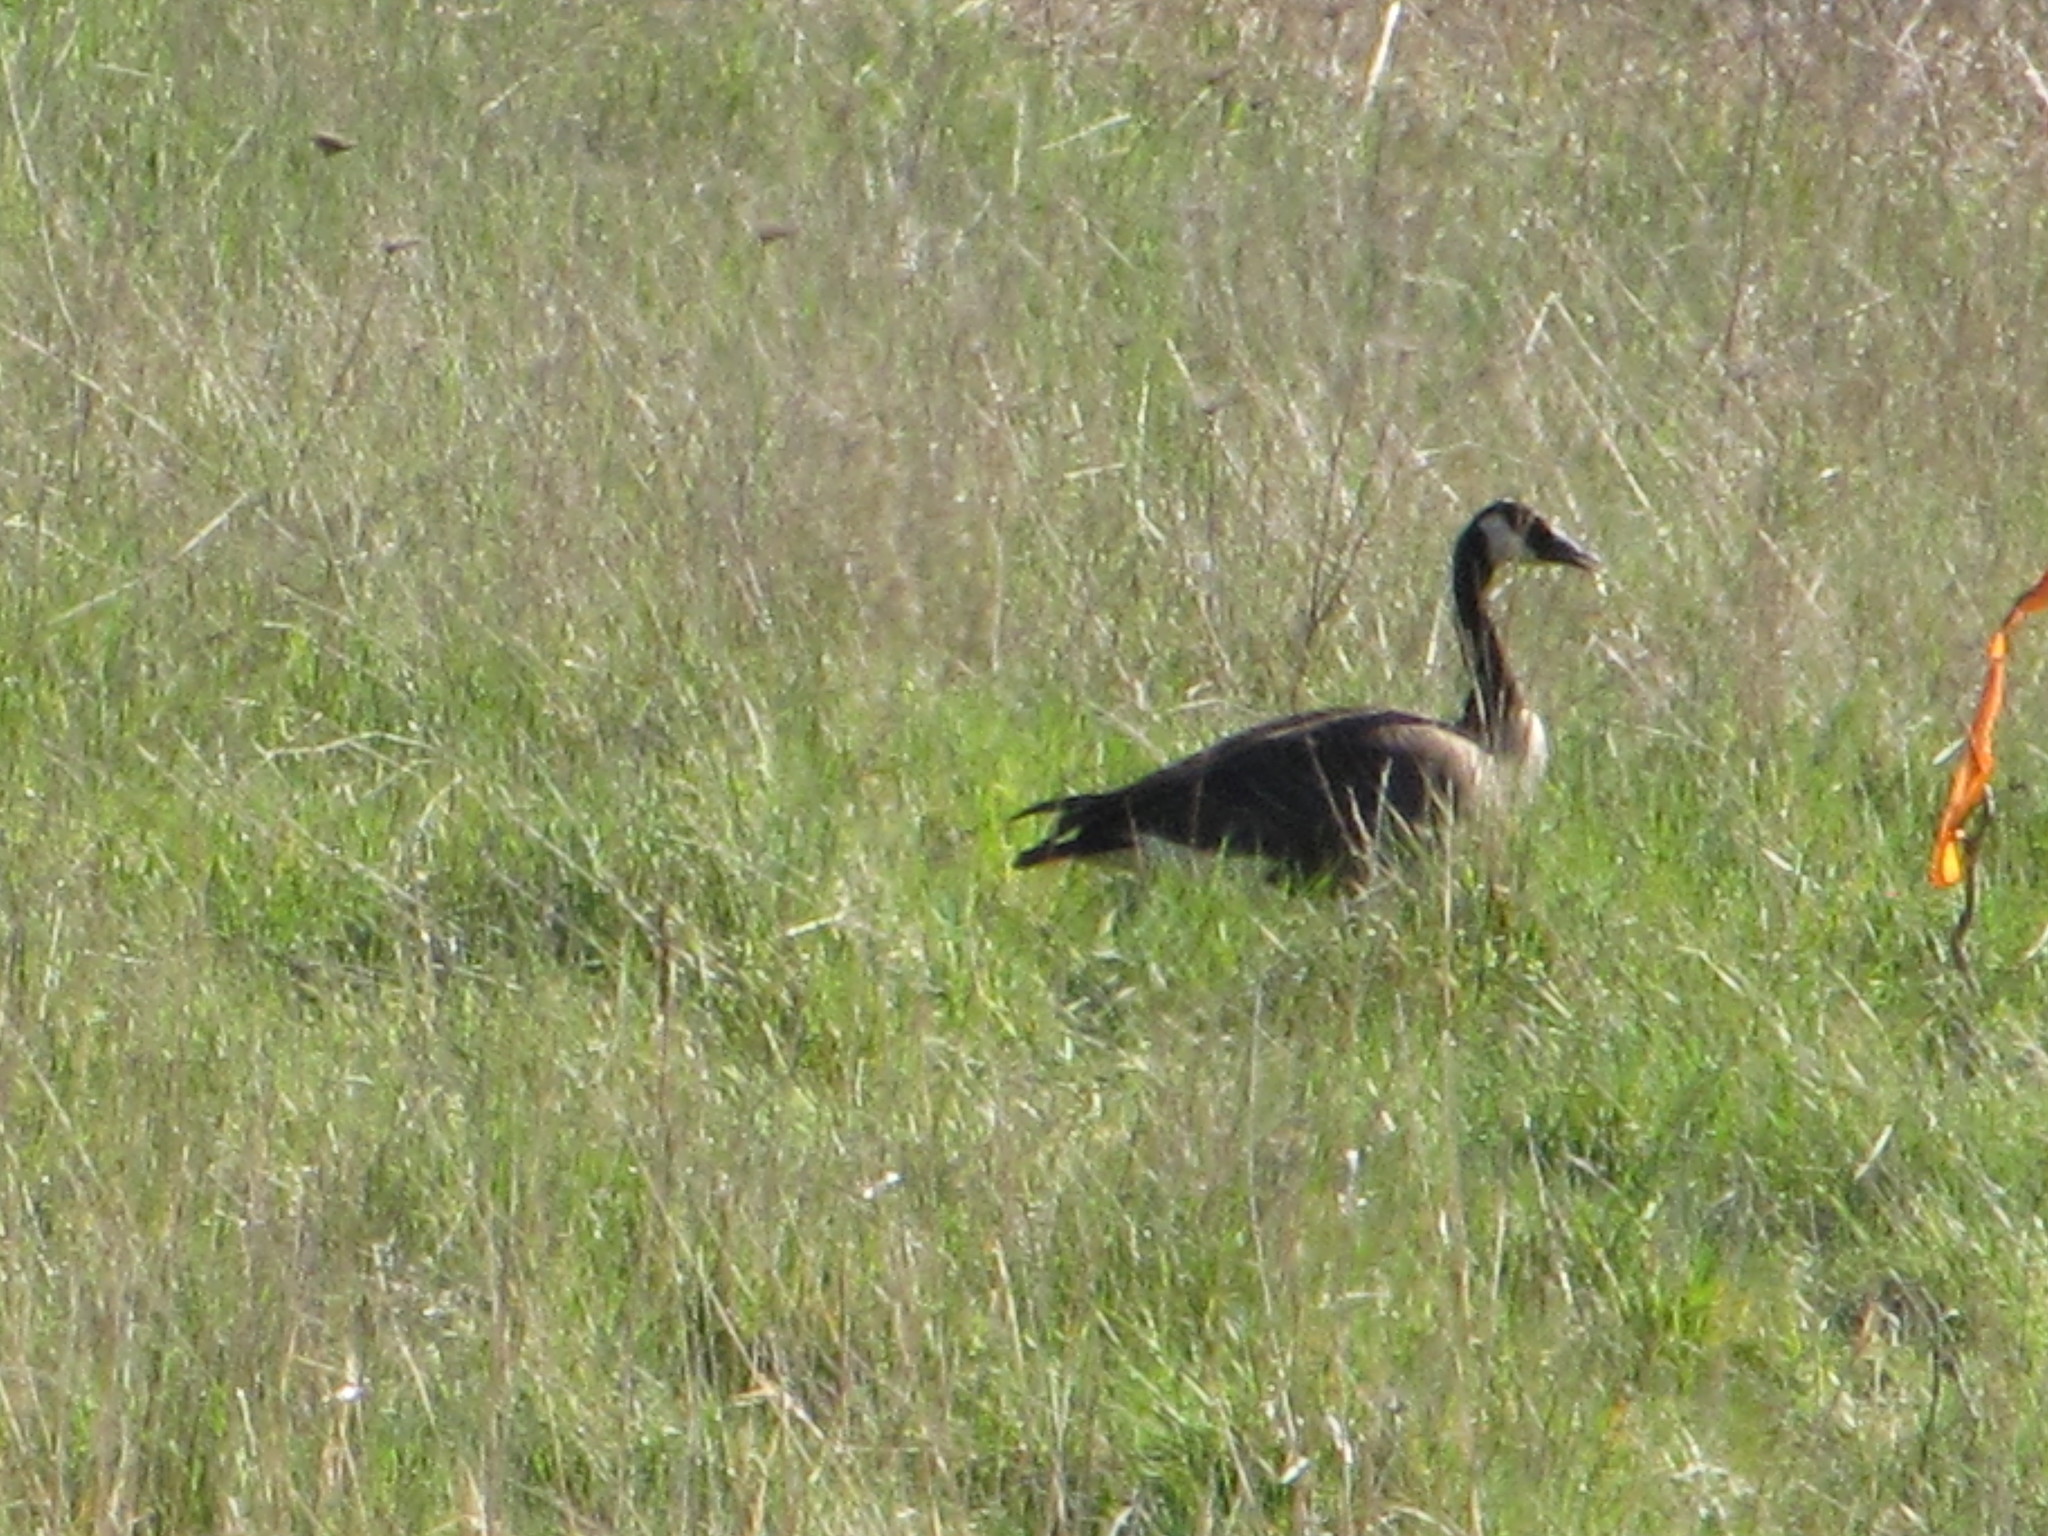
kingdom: Animalia
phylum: Chordata
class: Aves
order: Anseriformes
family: Anatidae
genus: Branta
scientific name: Branta canadensis
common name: Canada goose
